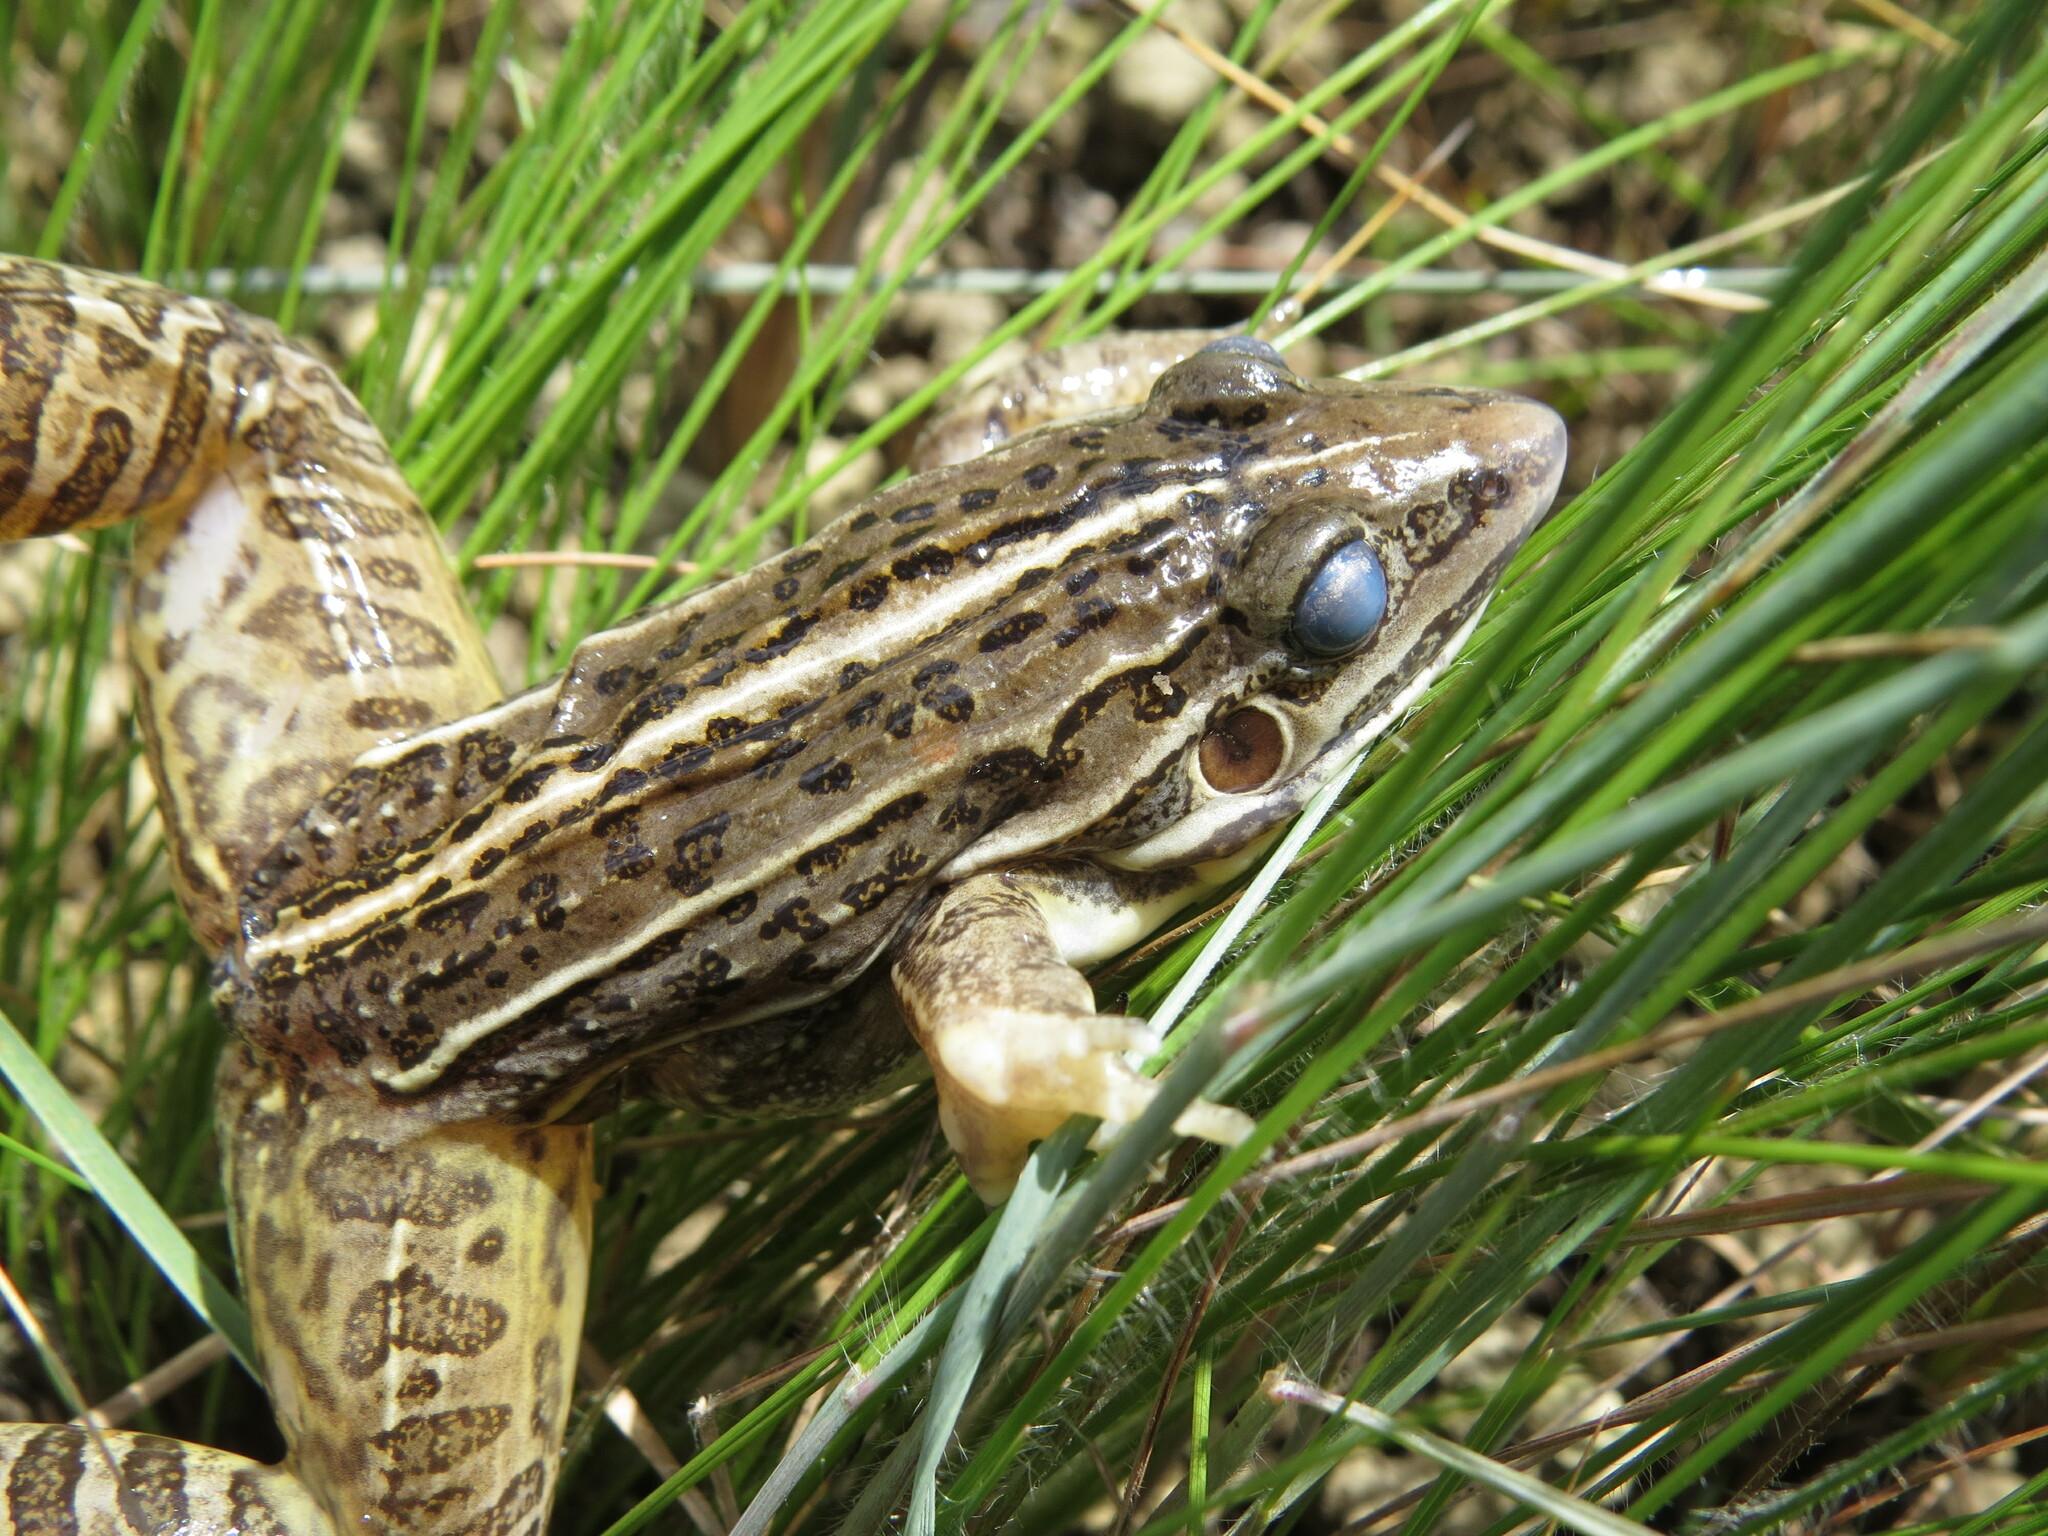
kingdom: Animalia
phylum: Chordata
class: Amphibia
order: Anura
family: Leptodactylidae
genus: Leptodactylus
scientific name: Leptodactylus sertanejo
